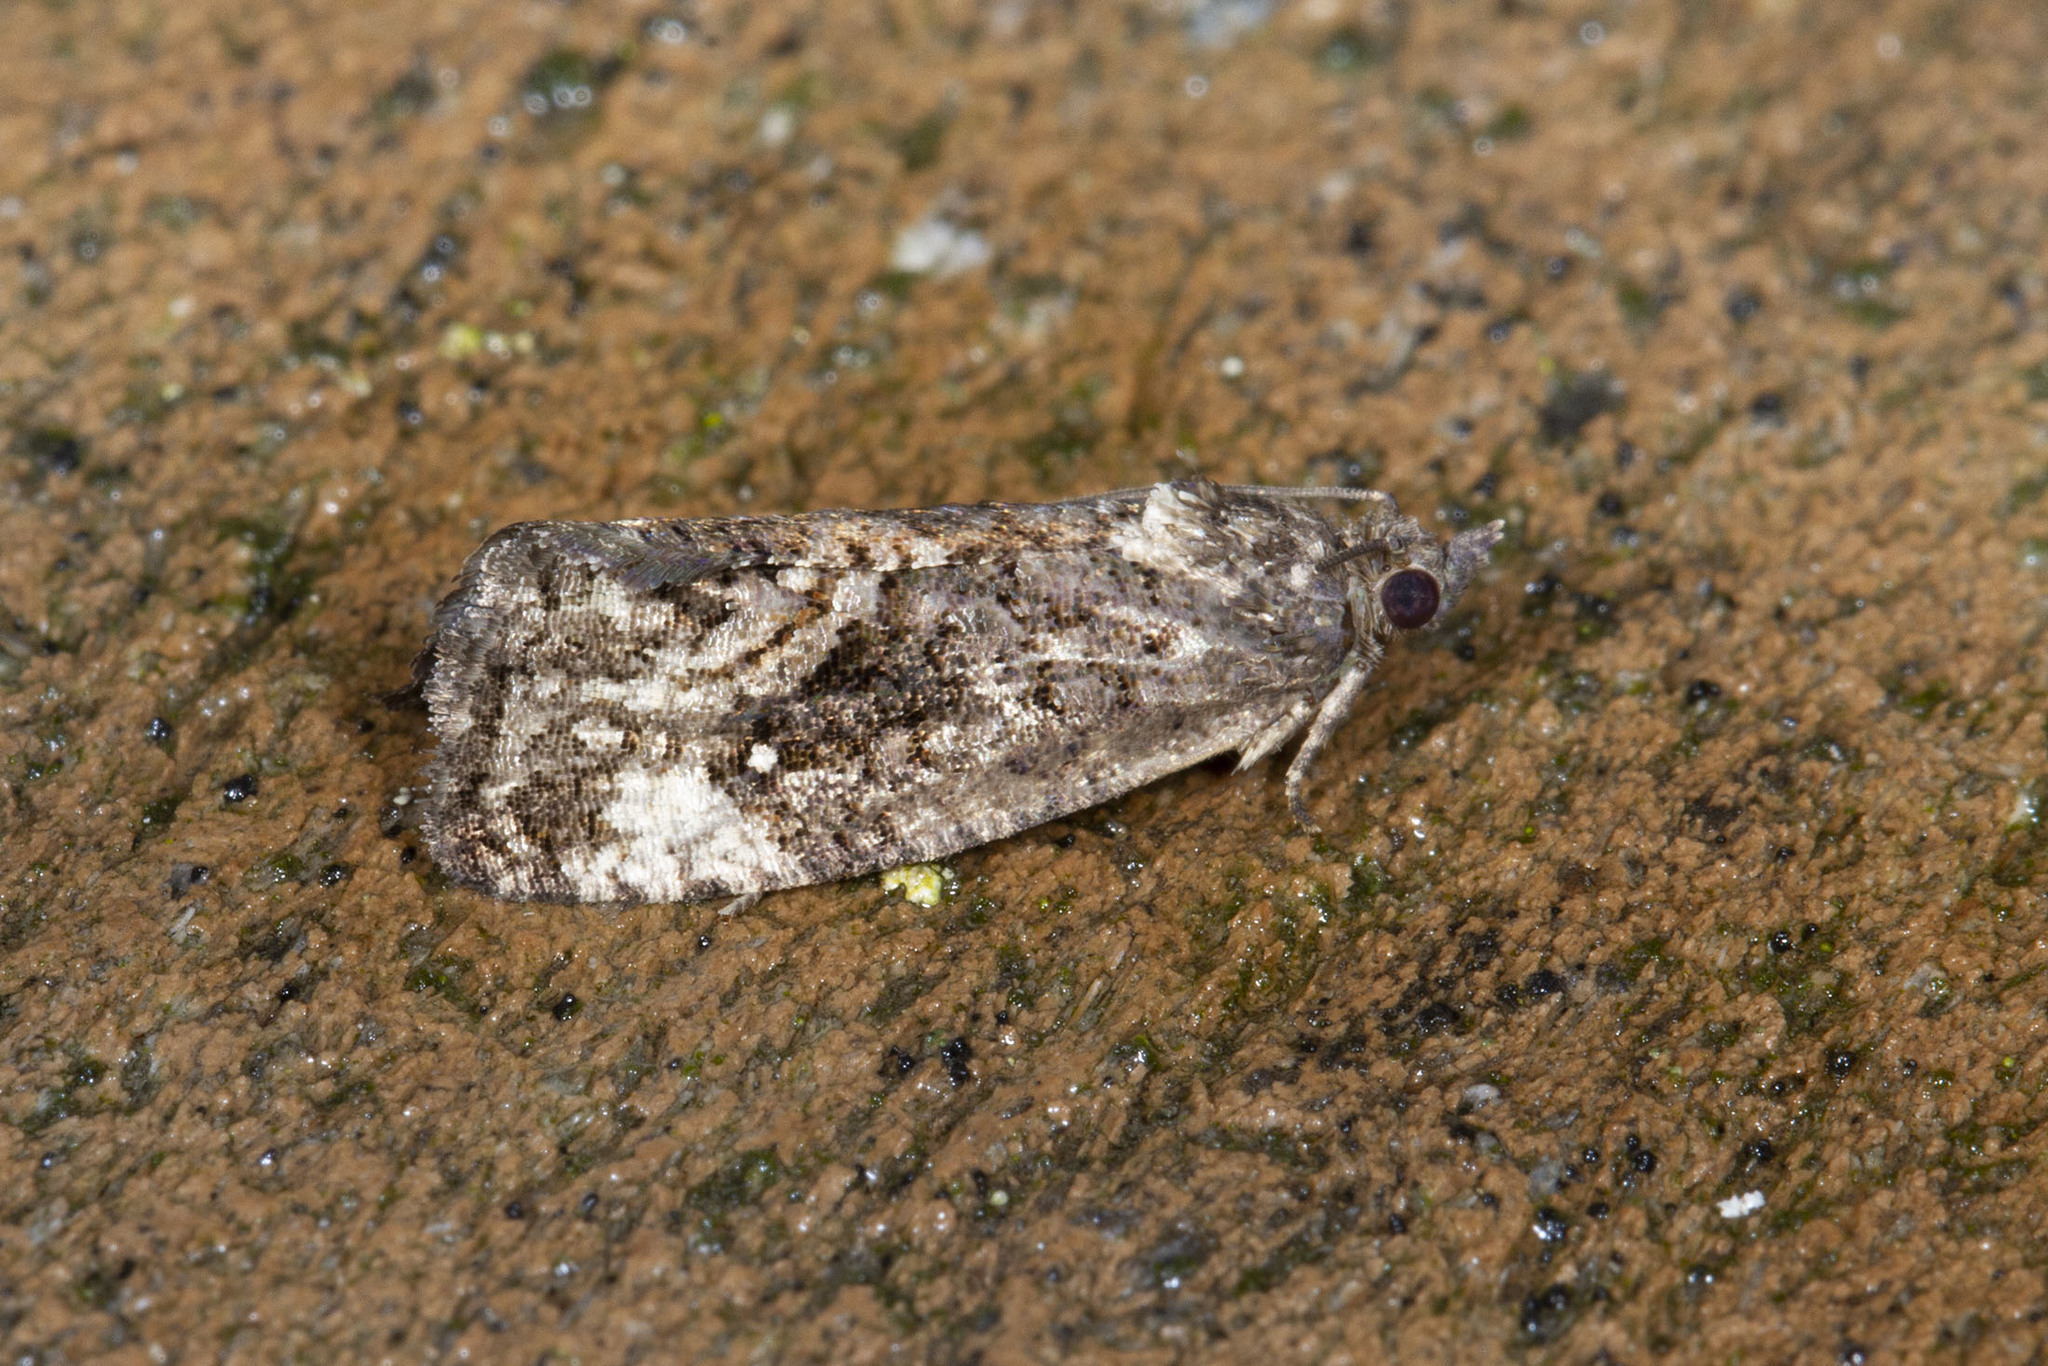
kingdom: Animalia
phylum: Arthropoda
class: Insecta
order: Lepidoptera
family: Tortricidae
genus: Gymnandrosoma
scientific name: Gymnandrosoma punctidiscanum
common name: Dotted ecdytolopha moth
